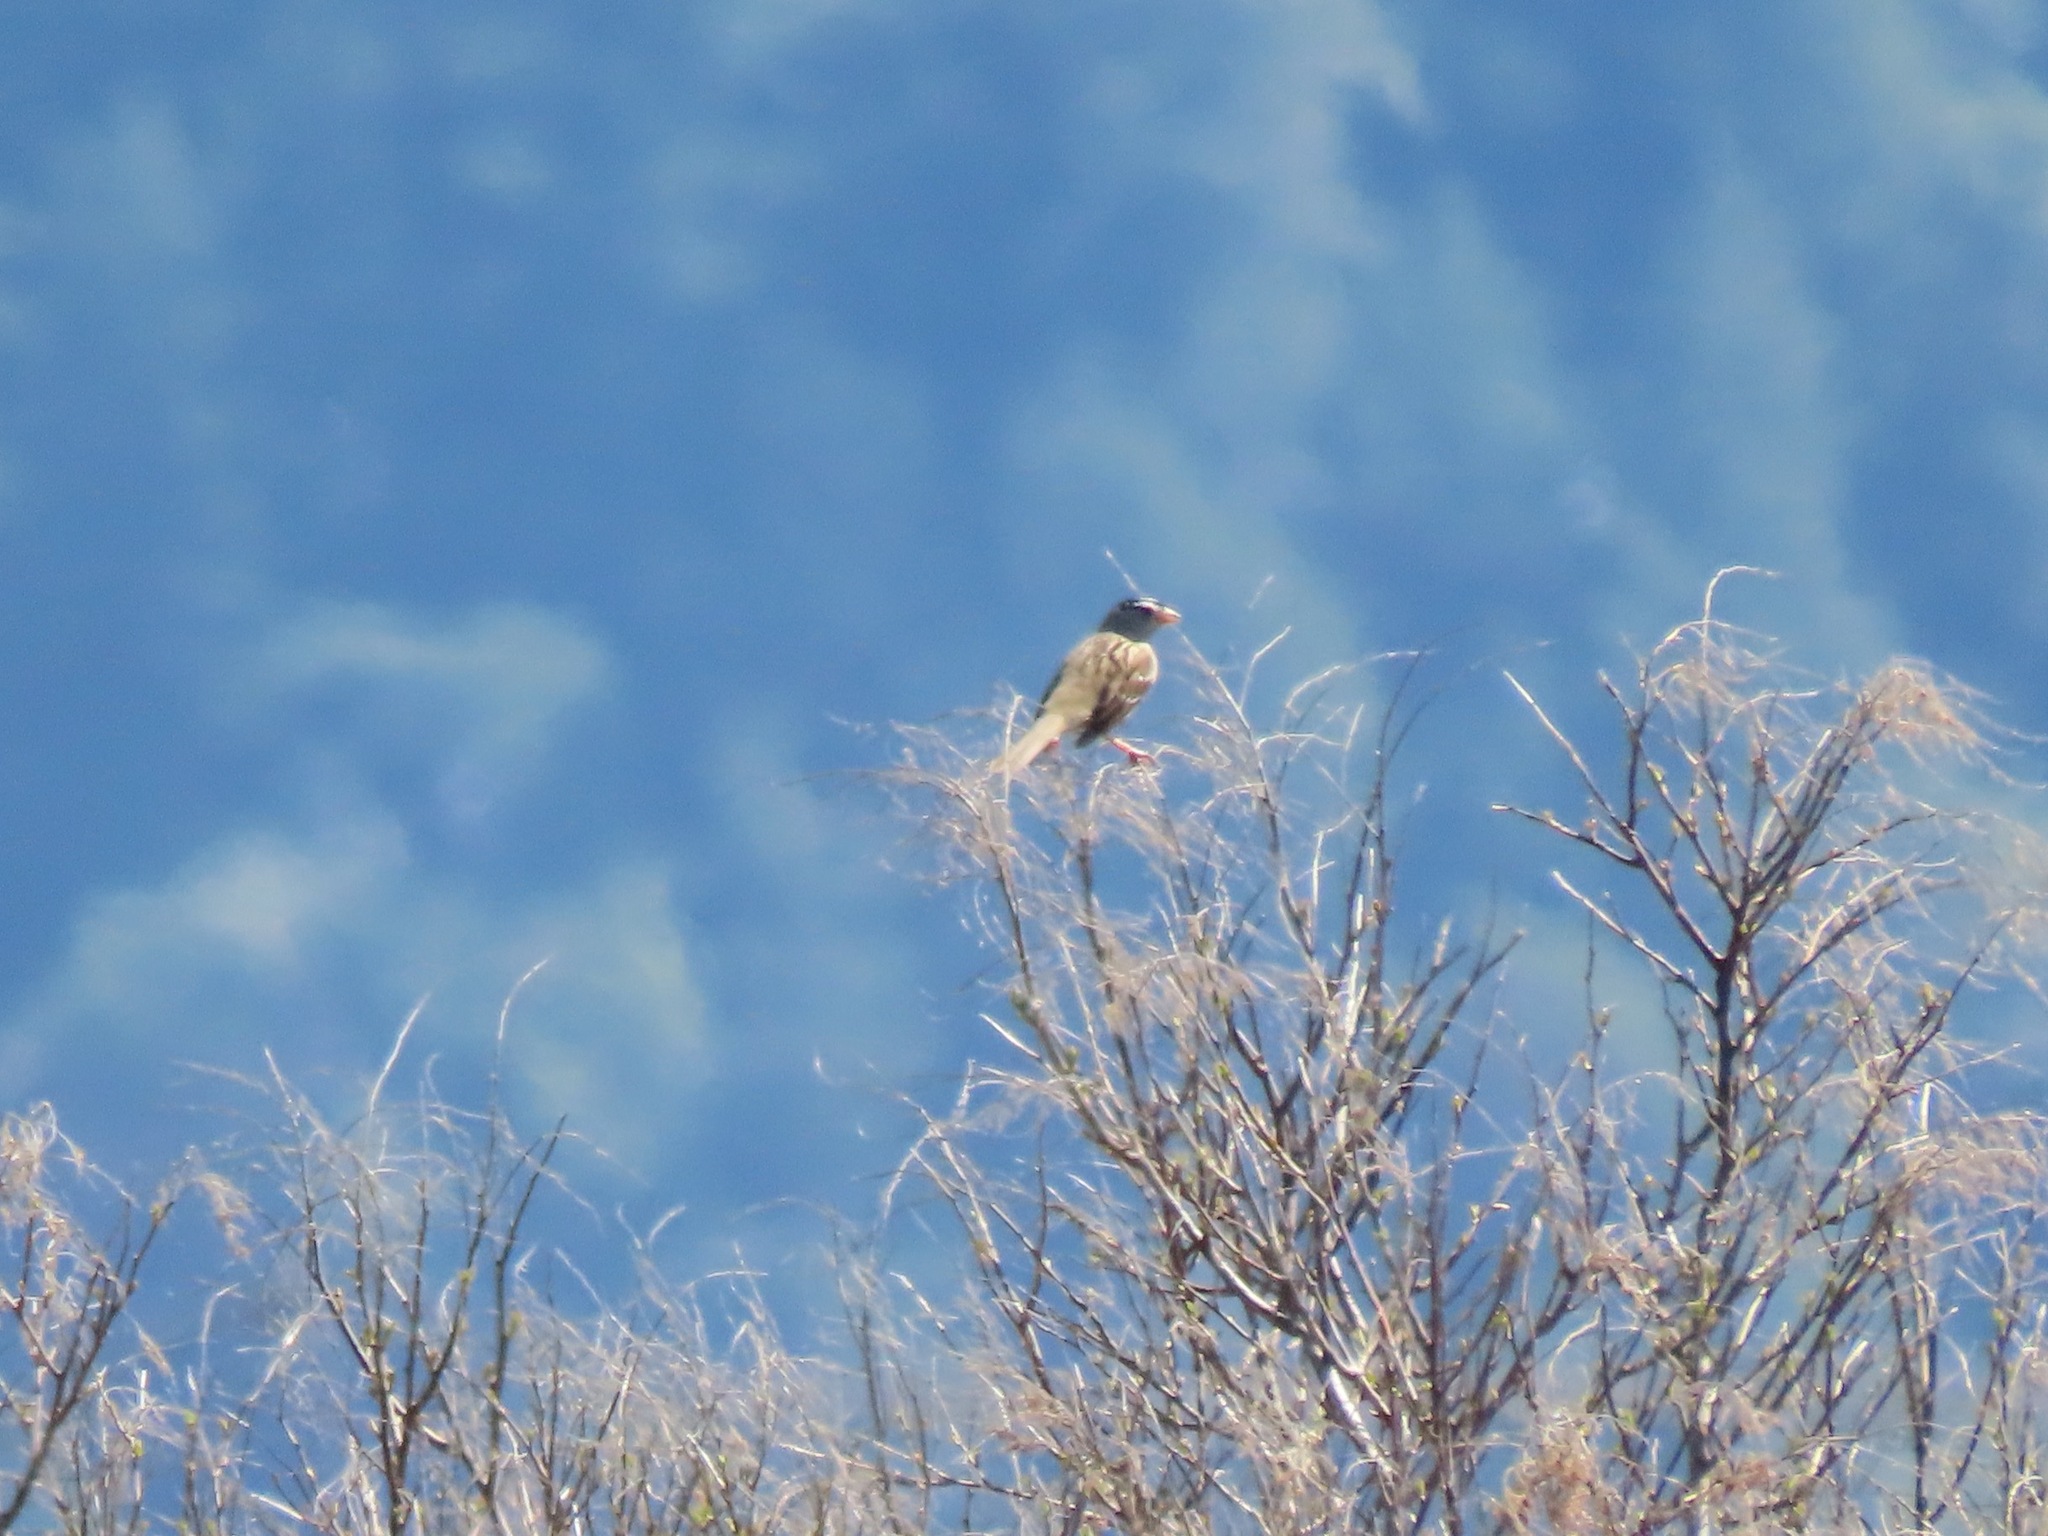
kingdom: Animalia
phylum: Chordata
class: Aves
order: Passeriformes
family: Passerellidae
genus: Zonotrichia
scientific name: Zonotrichia leucophrys
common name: White-crowned sparrow
